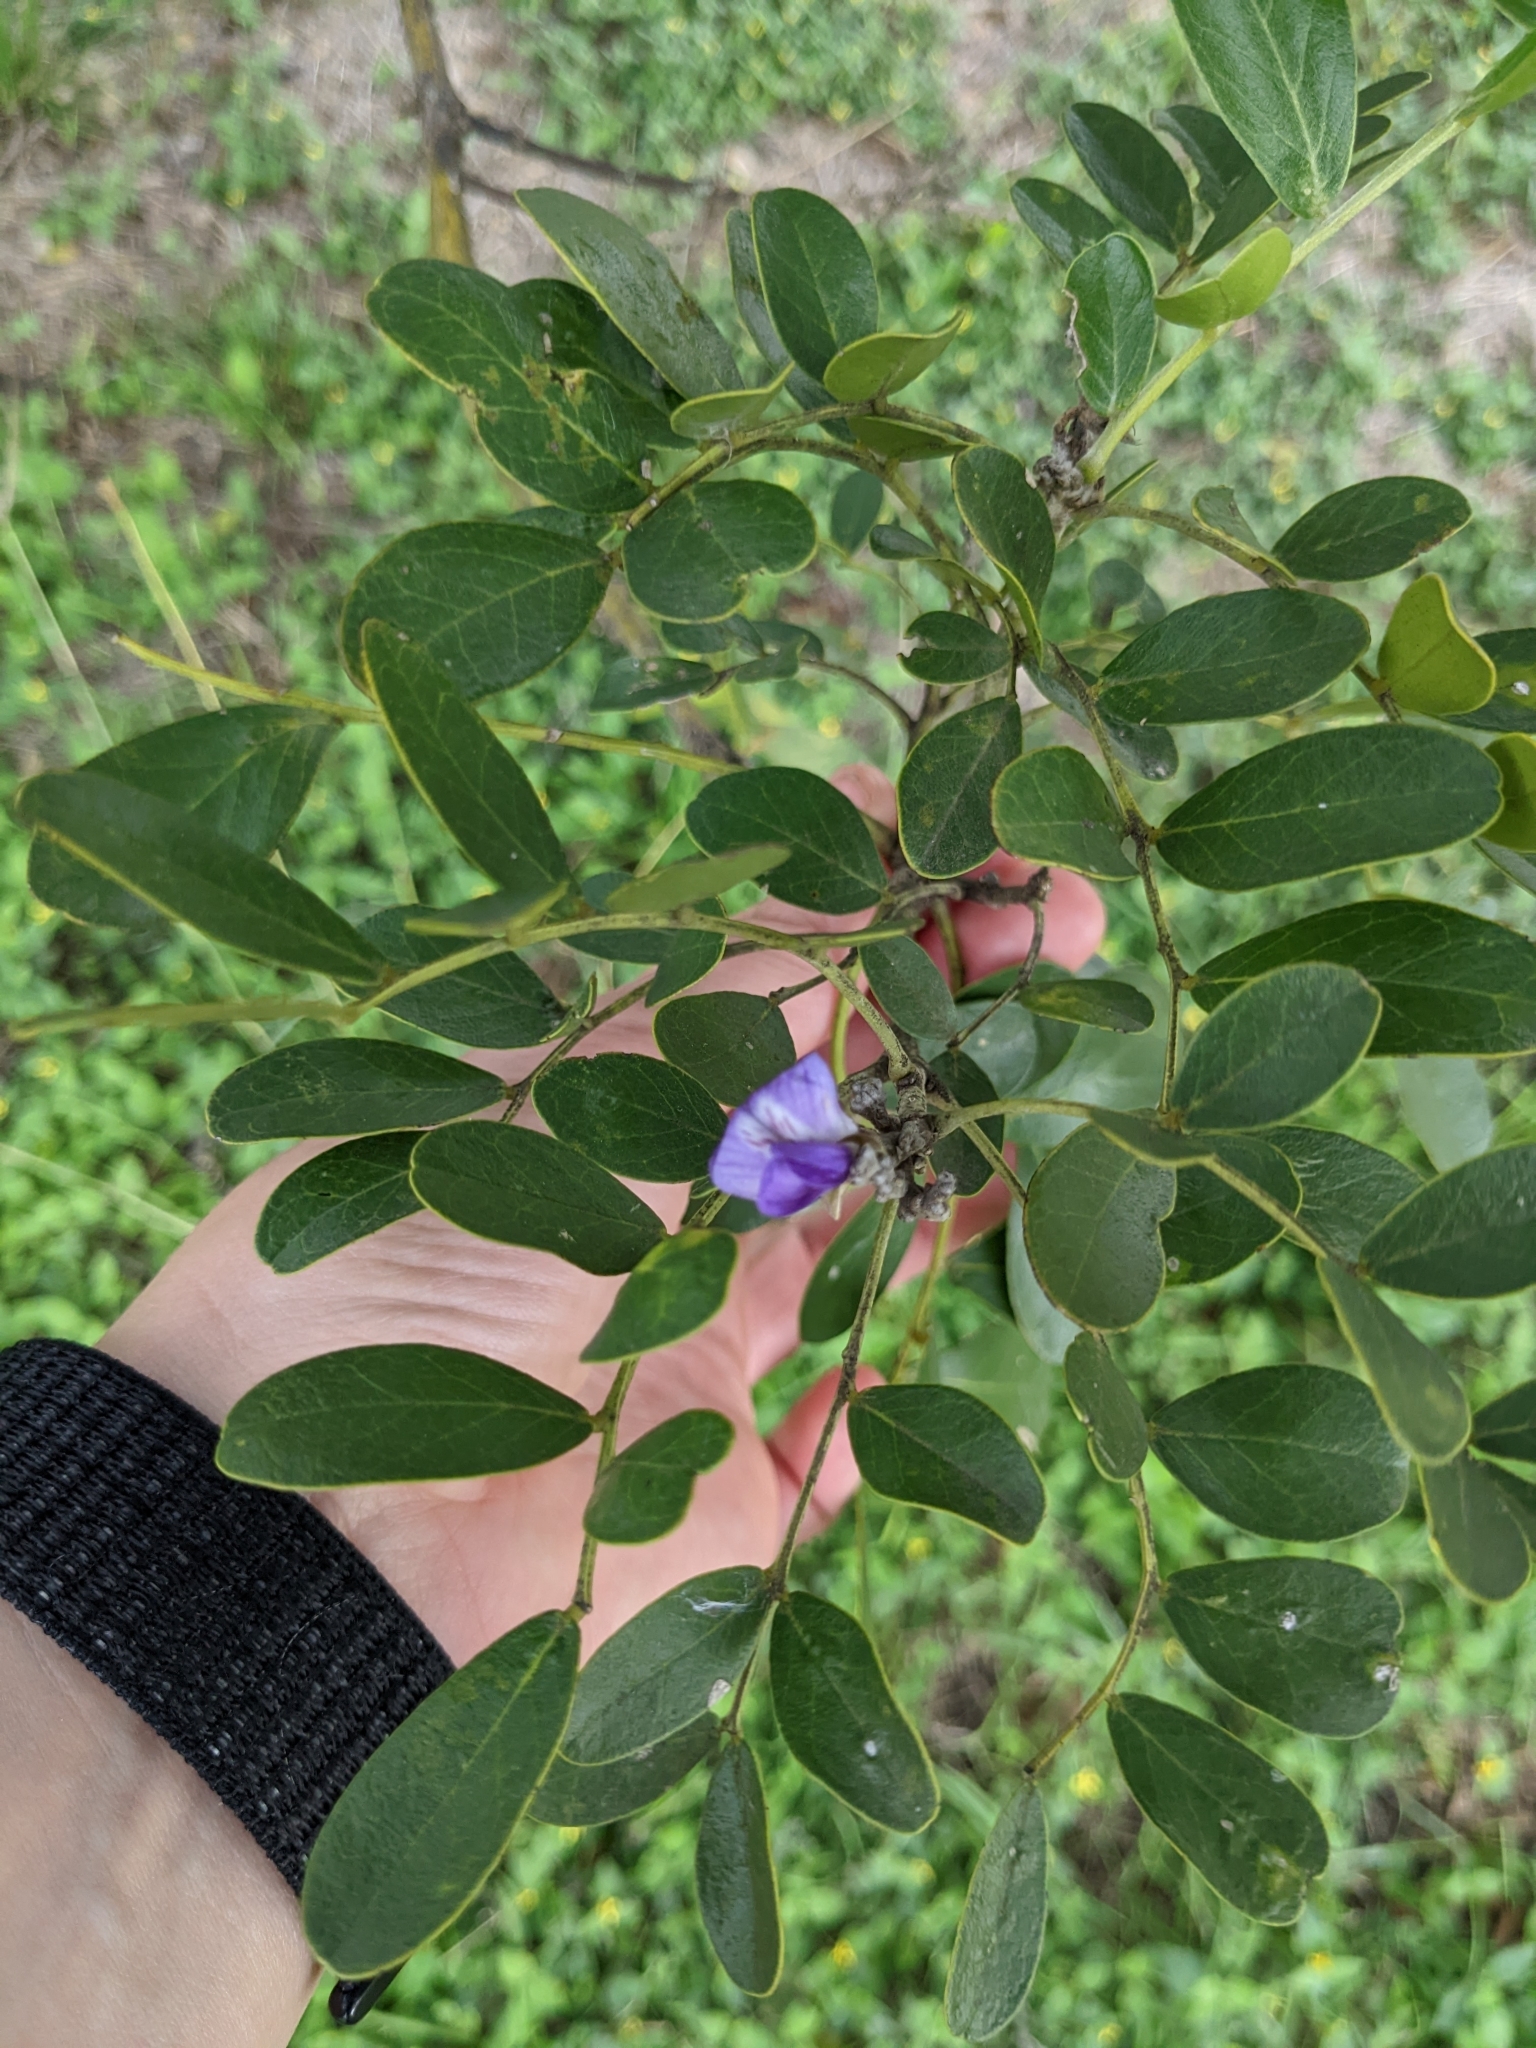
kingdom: Plantae
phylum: Tracheophyta
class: Magnoliopsida
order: Fabales
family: Fabaceae
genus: Dermatophyllum
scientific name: Dermatophyllum secundiflorum
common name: Texas-mountain-laurel
